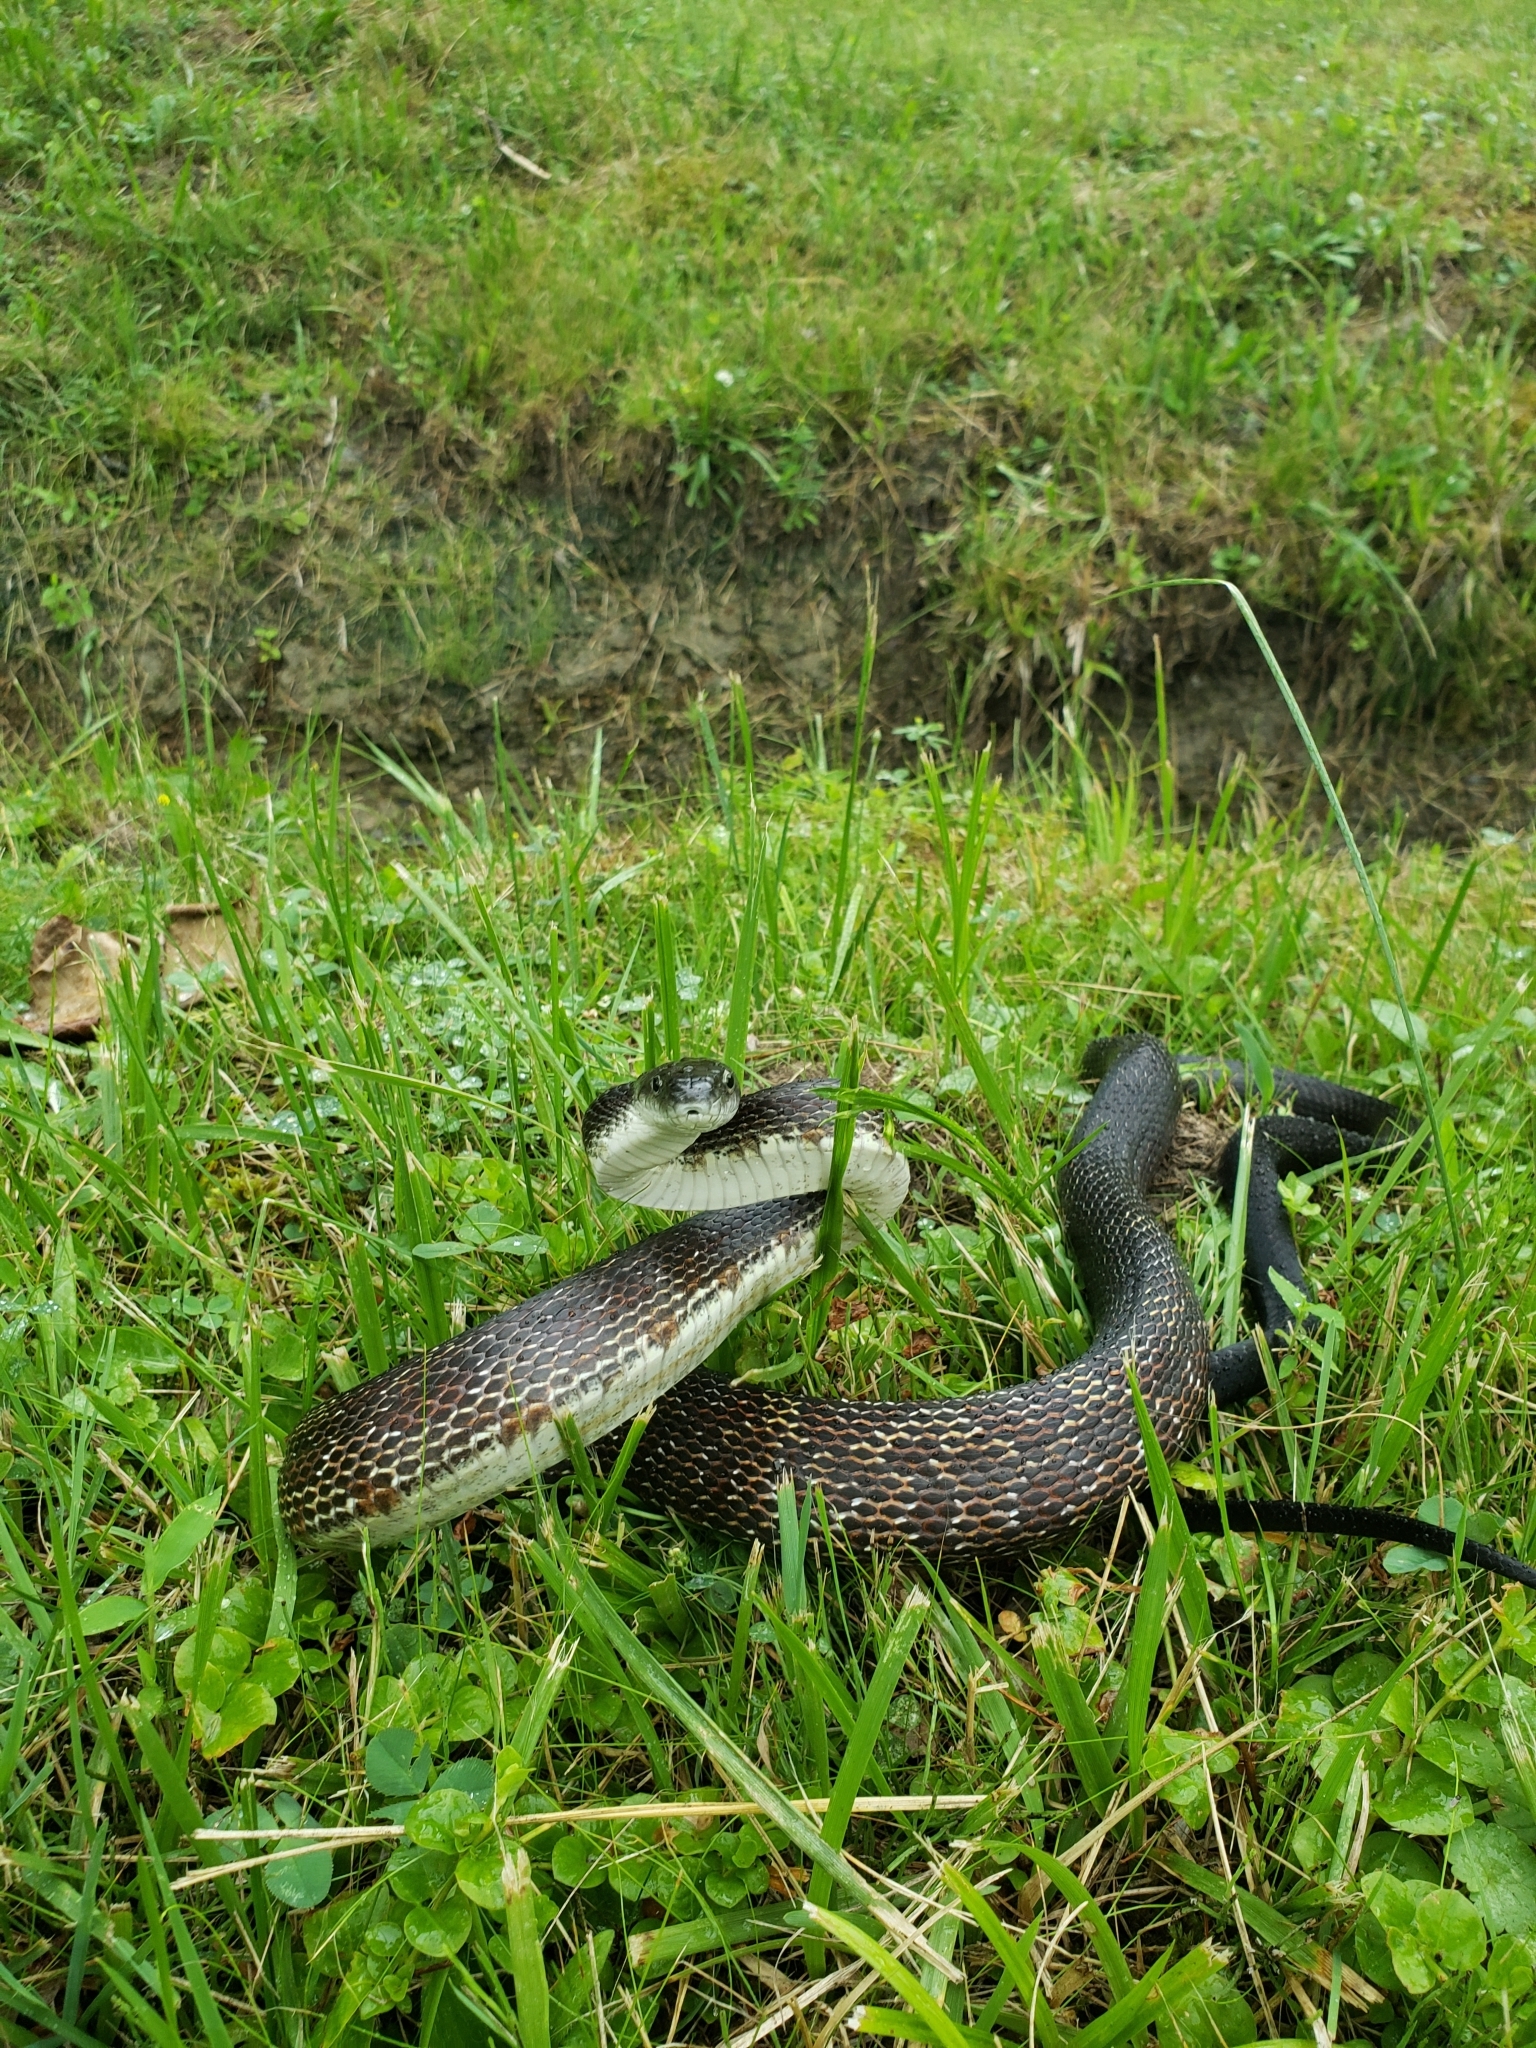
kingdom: Animalia
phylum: Chordata
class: Squamata
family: Colubridae
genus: Pantherophis
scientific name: Pantherophis spiloides
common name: Gray rat snake
